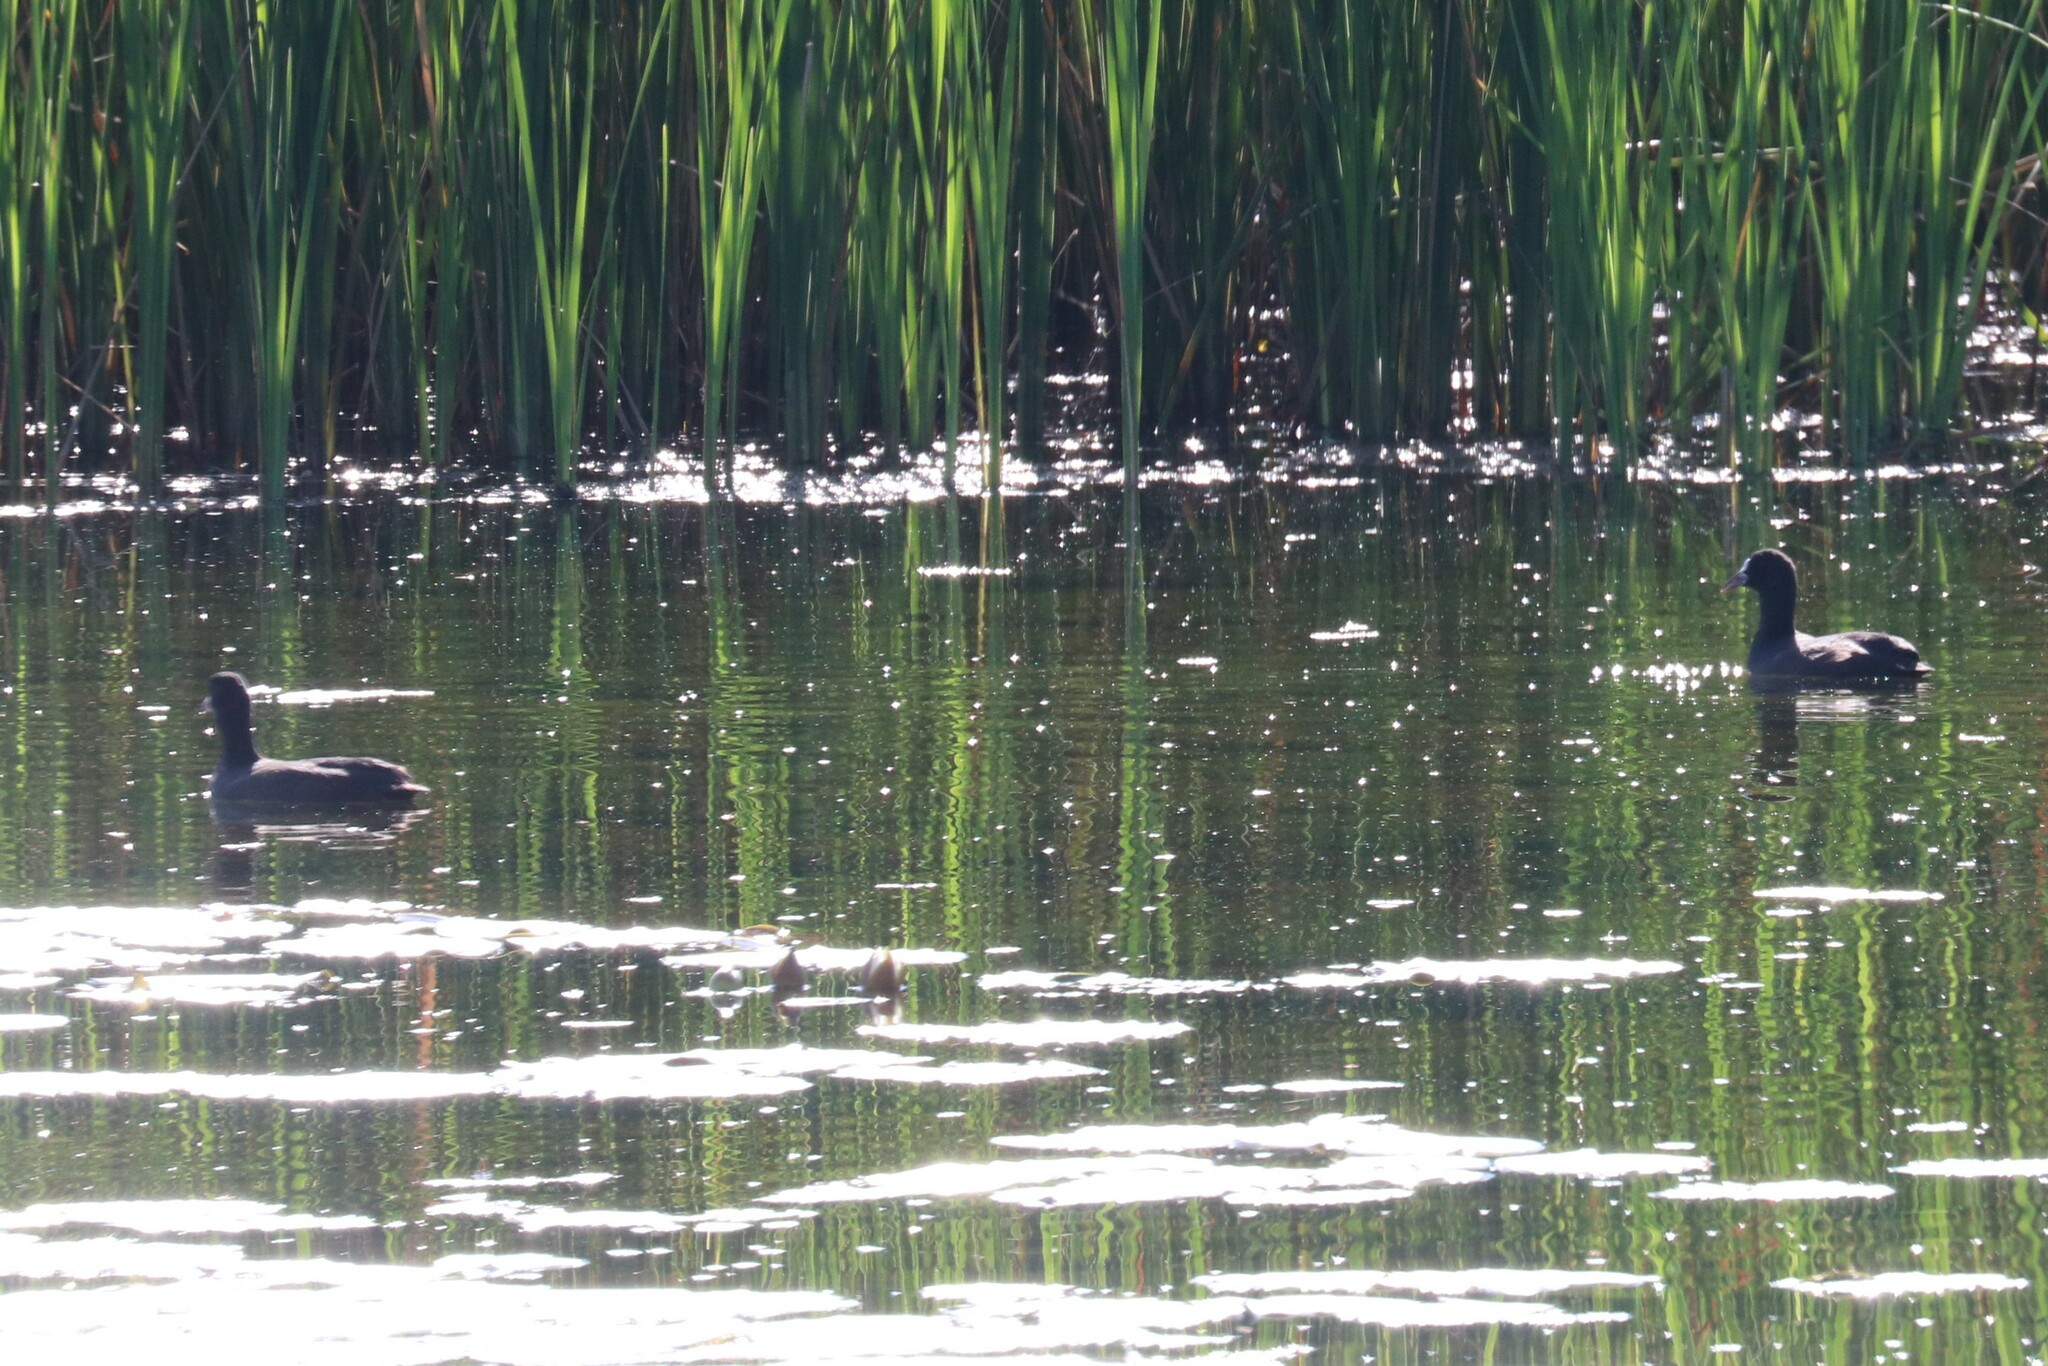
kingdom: Animalia
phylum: Chordata
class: Aves
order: Gruiformes
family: Rallidae
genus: Fulica
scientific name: Fulica atra
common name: Eurasian coot
